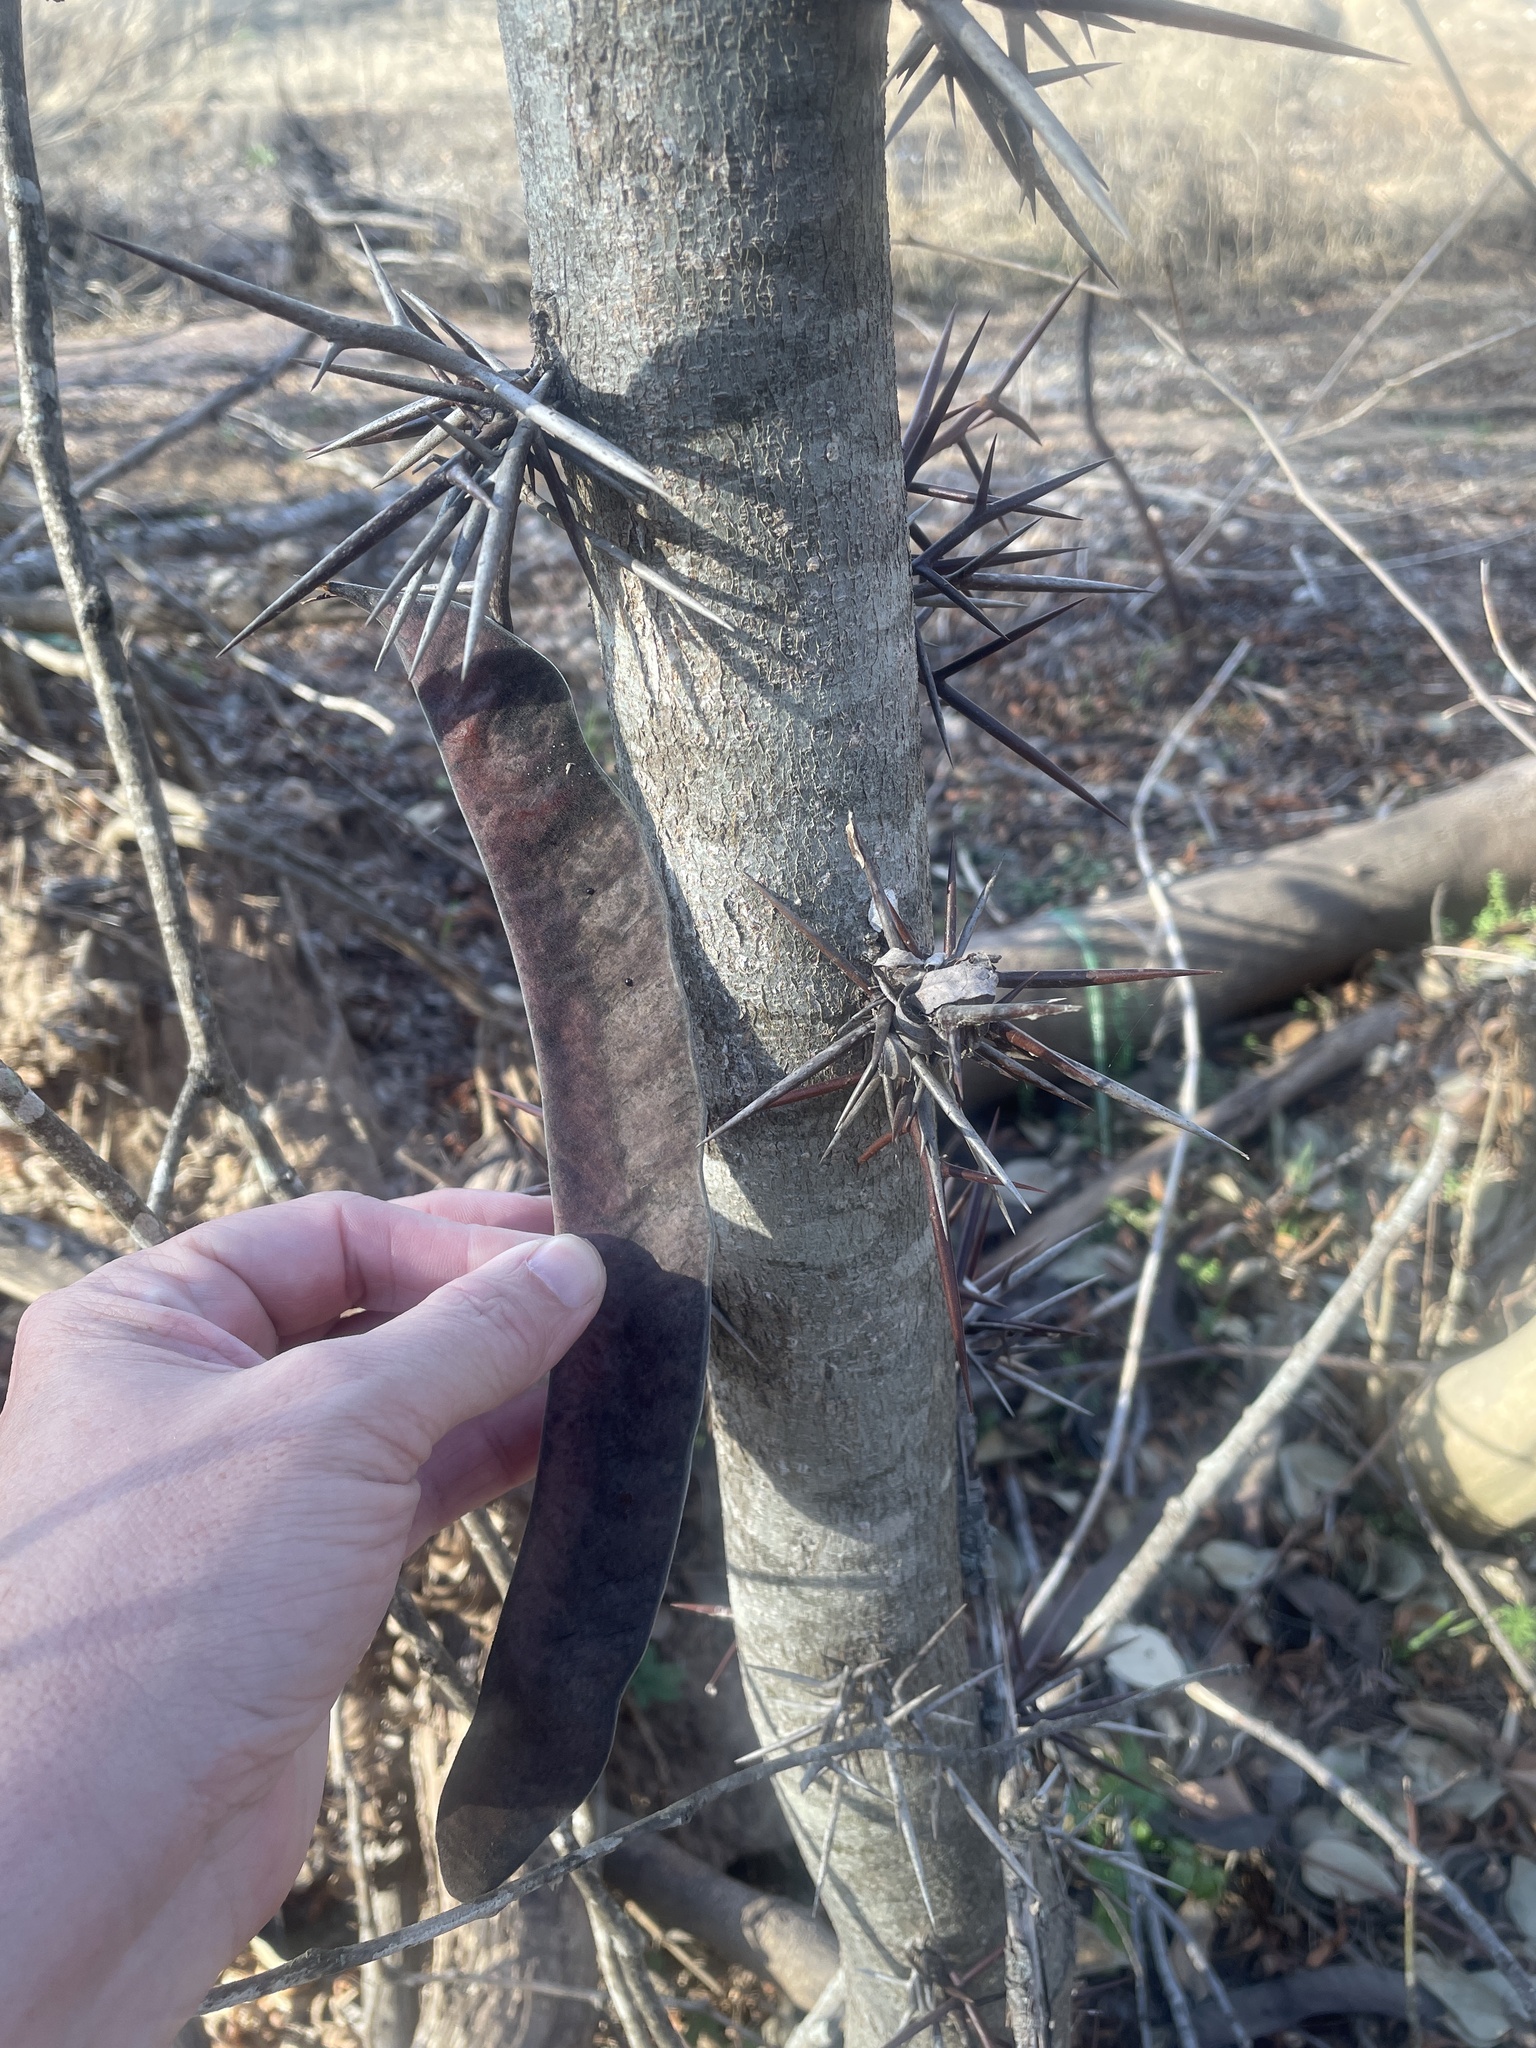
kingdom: Plantae
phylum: Tracheophyta
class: Magnoliopsida
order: Fabales
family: Fabaceae
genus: Gleditsia
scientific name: Gleditsia triacanthos
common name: Common honeylocust
